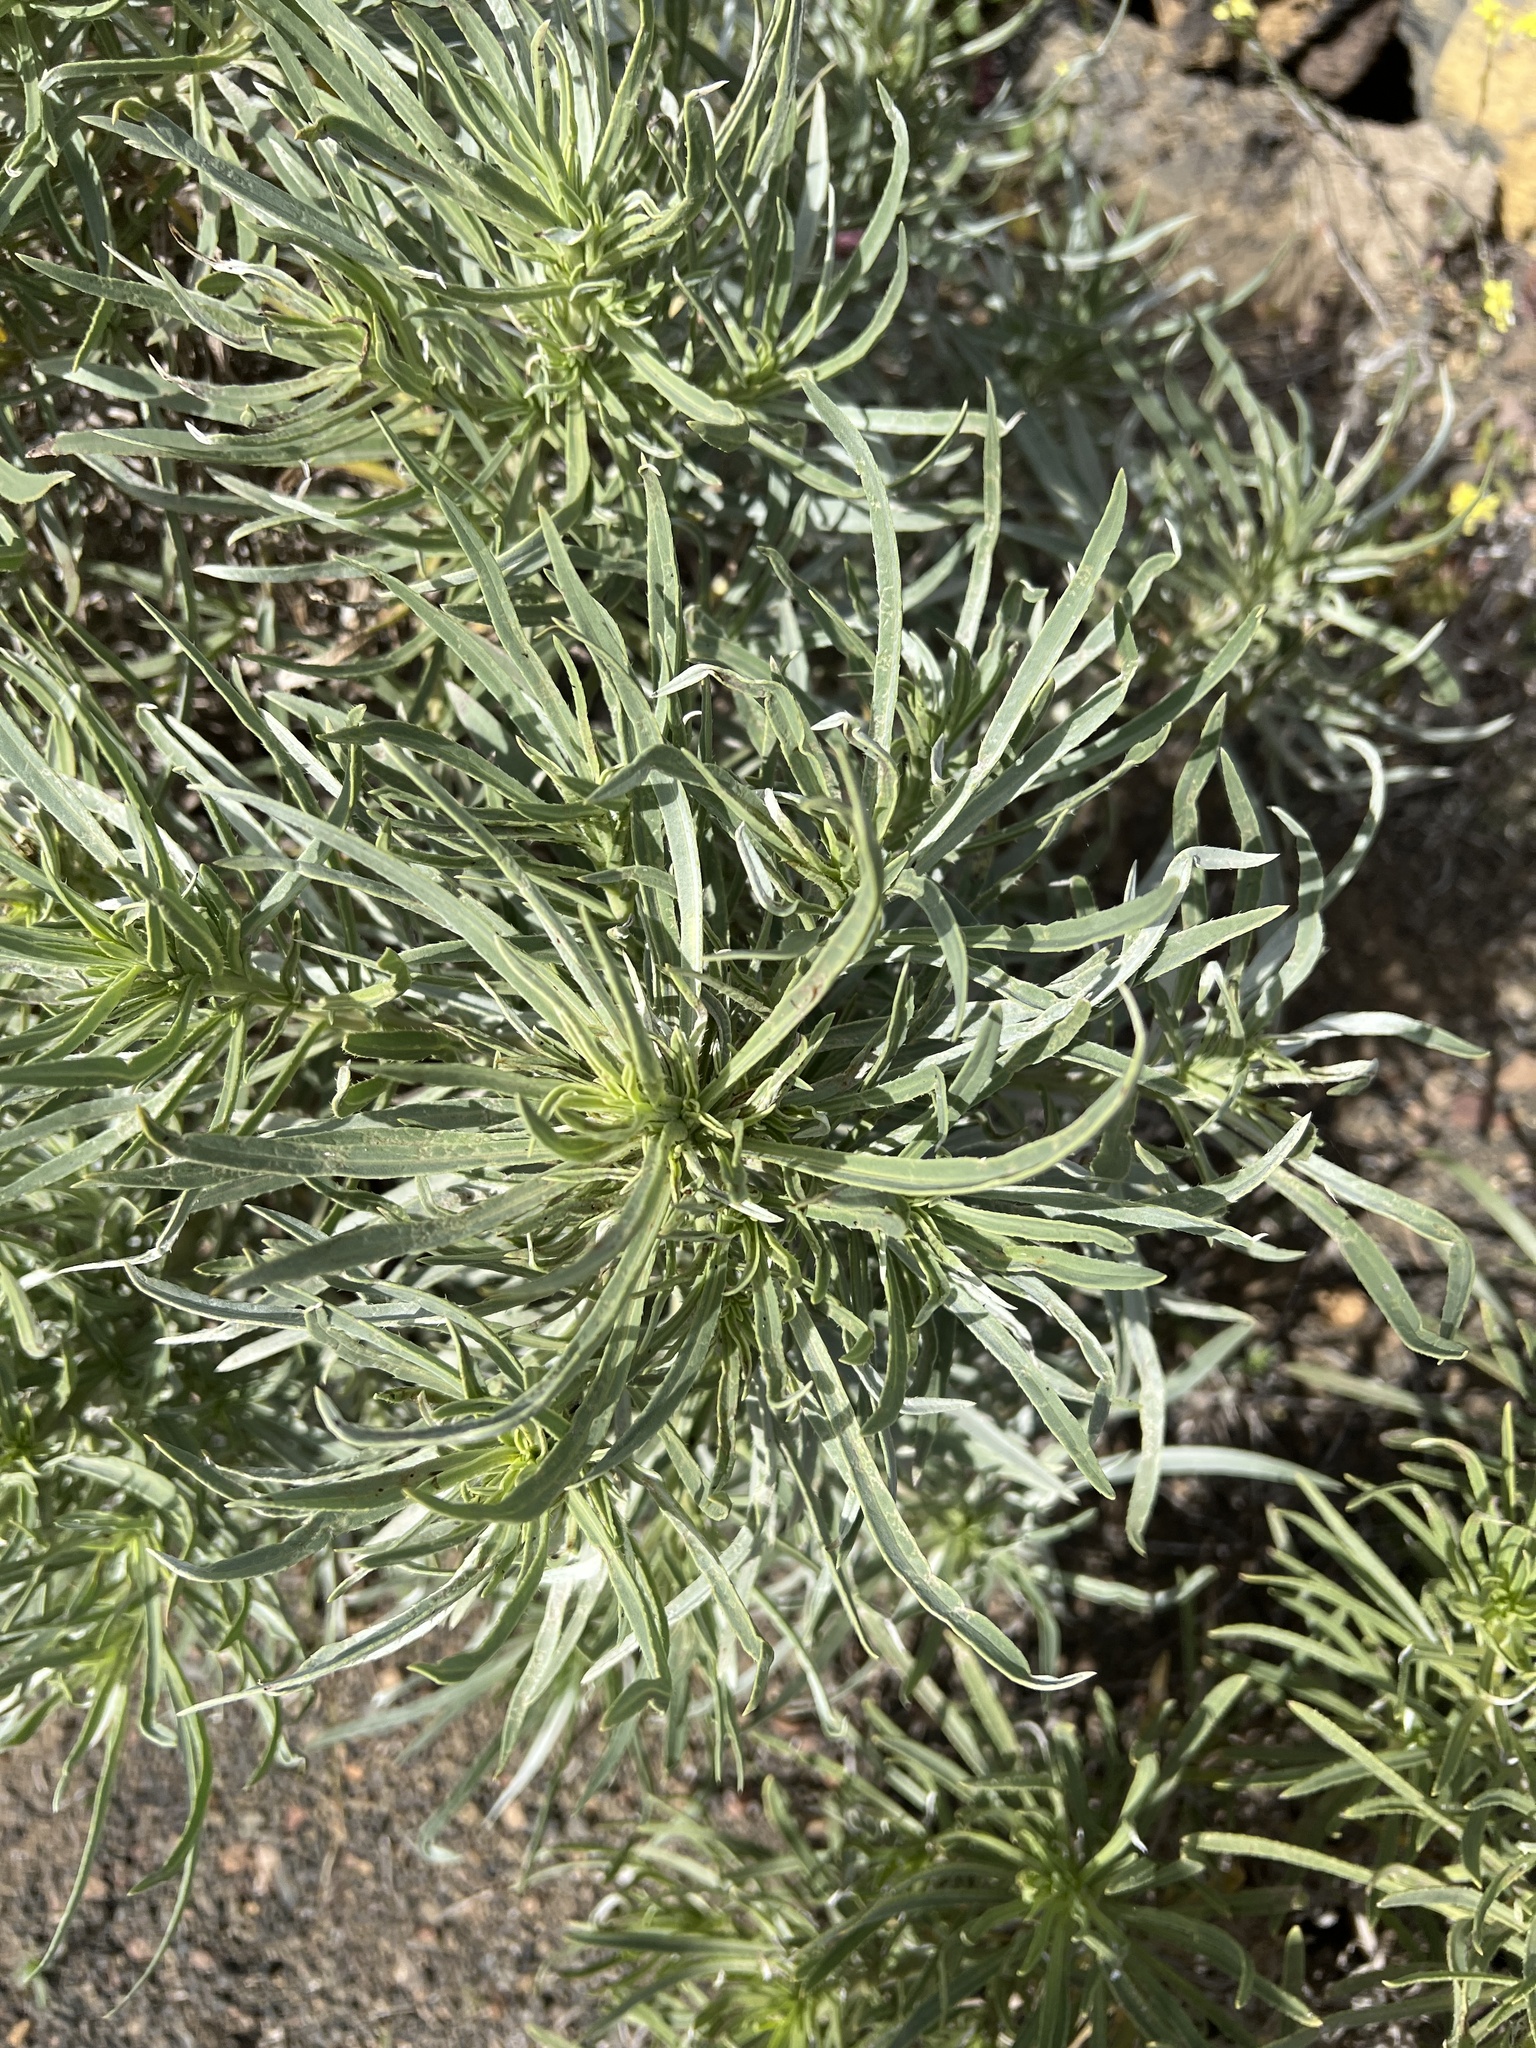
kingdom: Plantae
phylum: Tracheophyta
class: Magnoliopsida
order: Boraginales
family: Boraginaceae
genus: Echium
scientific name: Echium aculeatum
